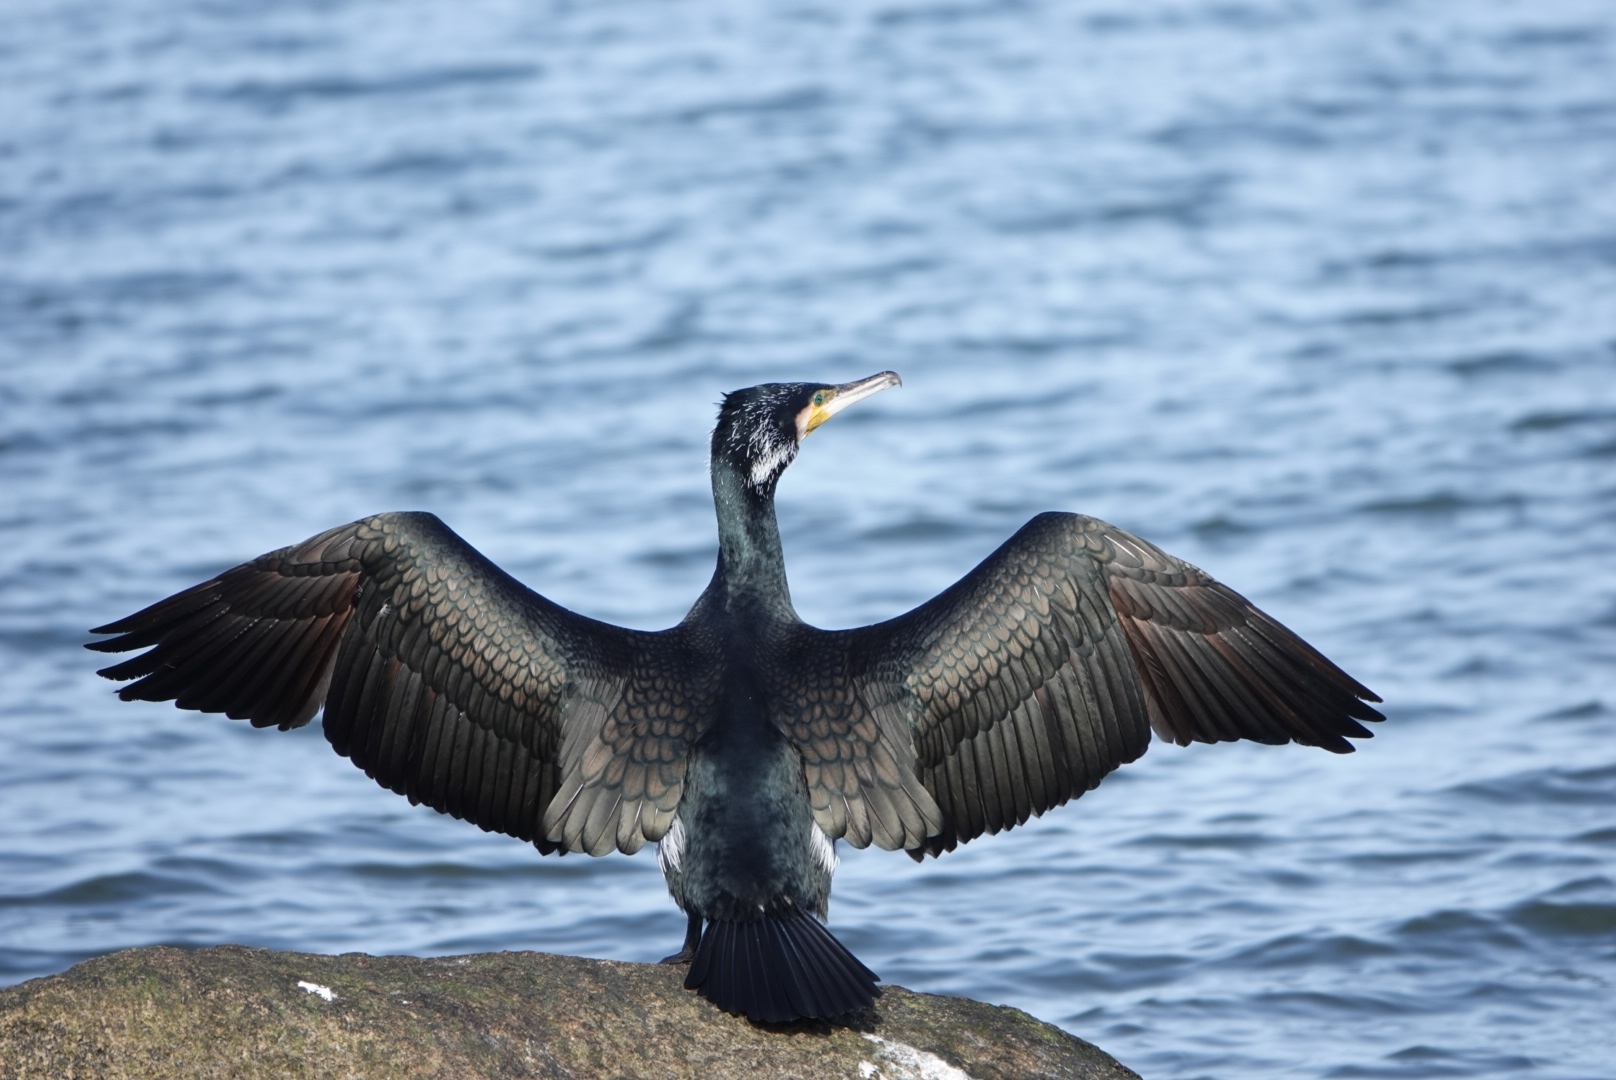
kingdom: Animalia
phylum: Chordata
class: Aves
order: Suliformes
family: Phalacrocoracidae
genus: Phalacrocorax
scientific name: Phalacrocorax carbo
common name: Great cormorant
